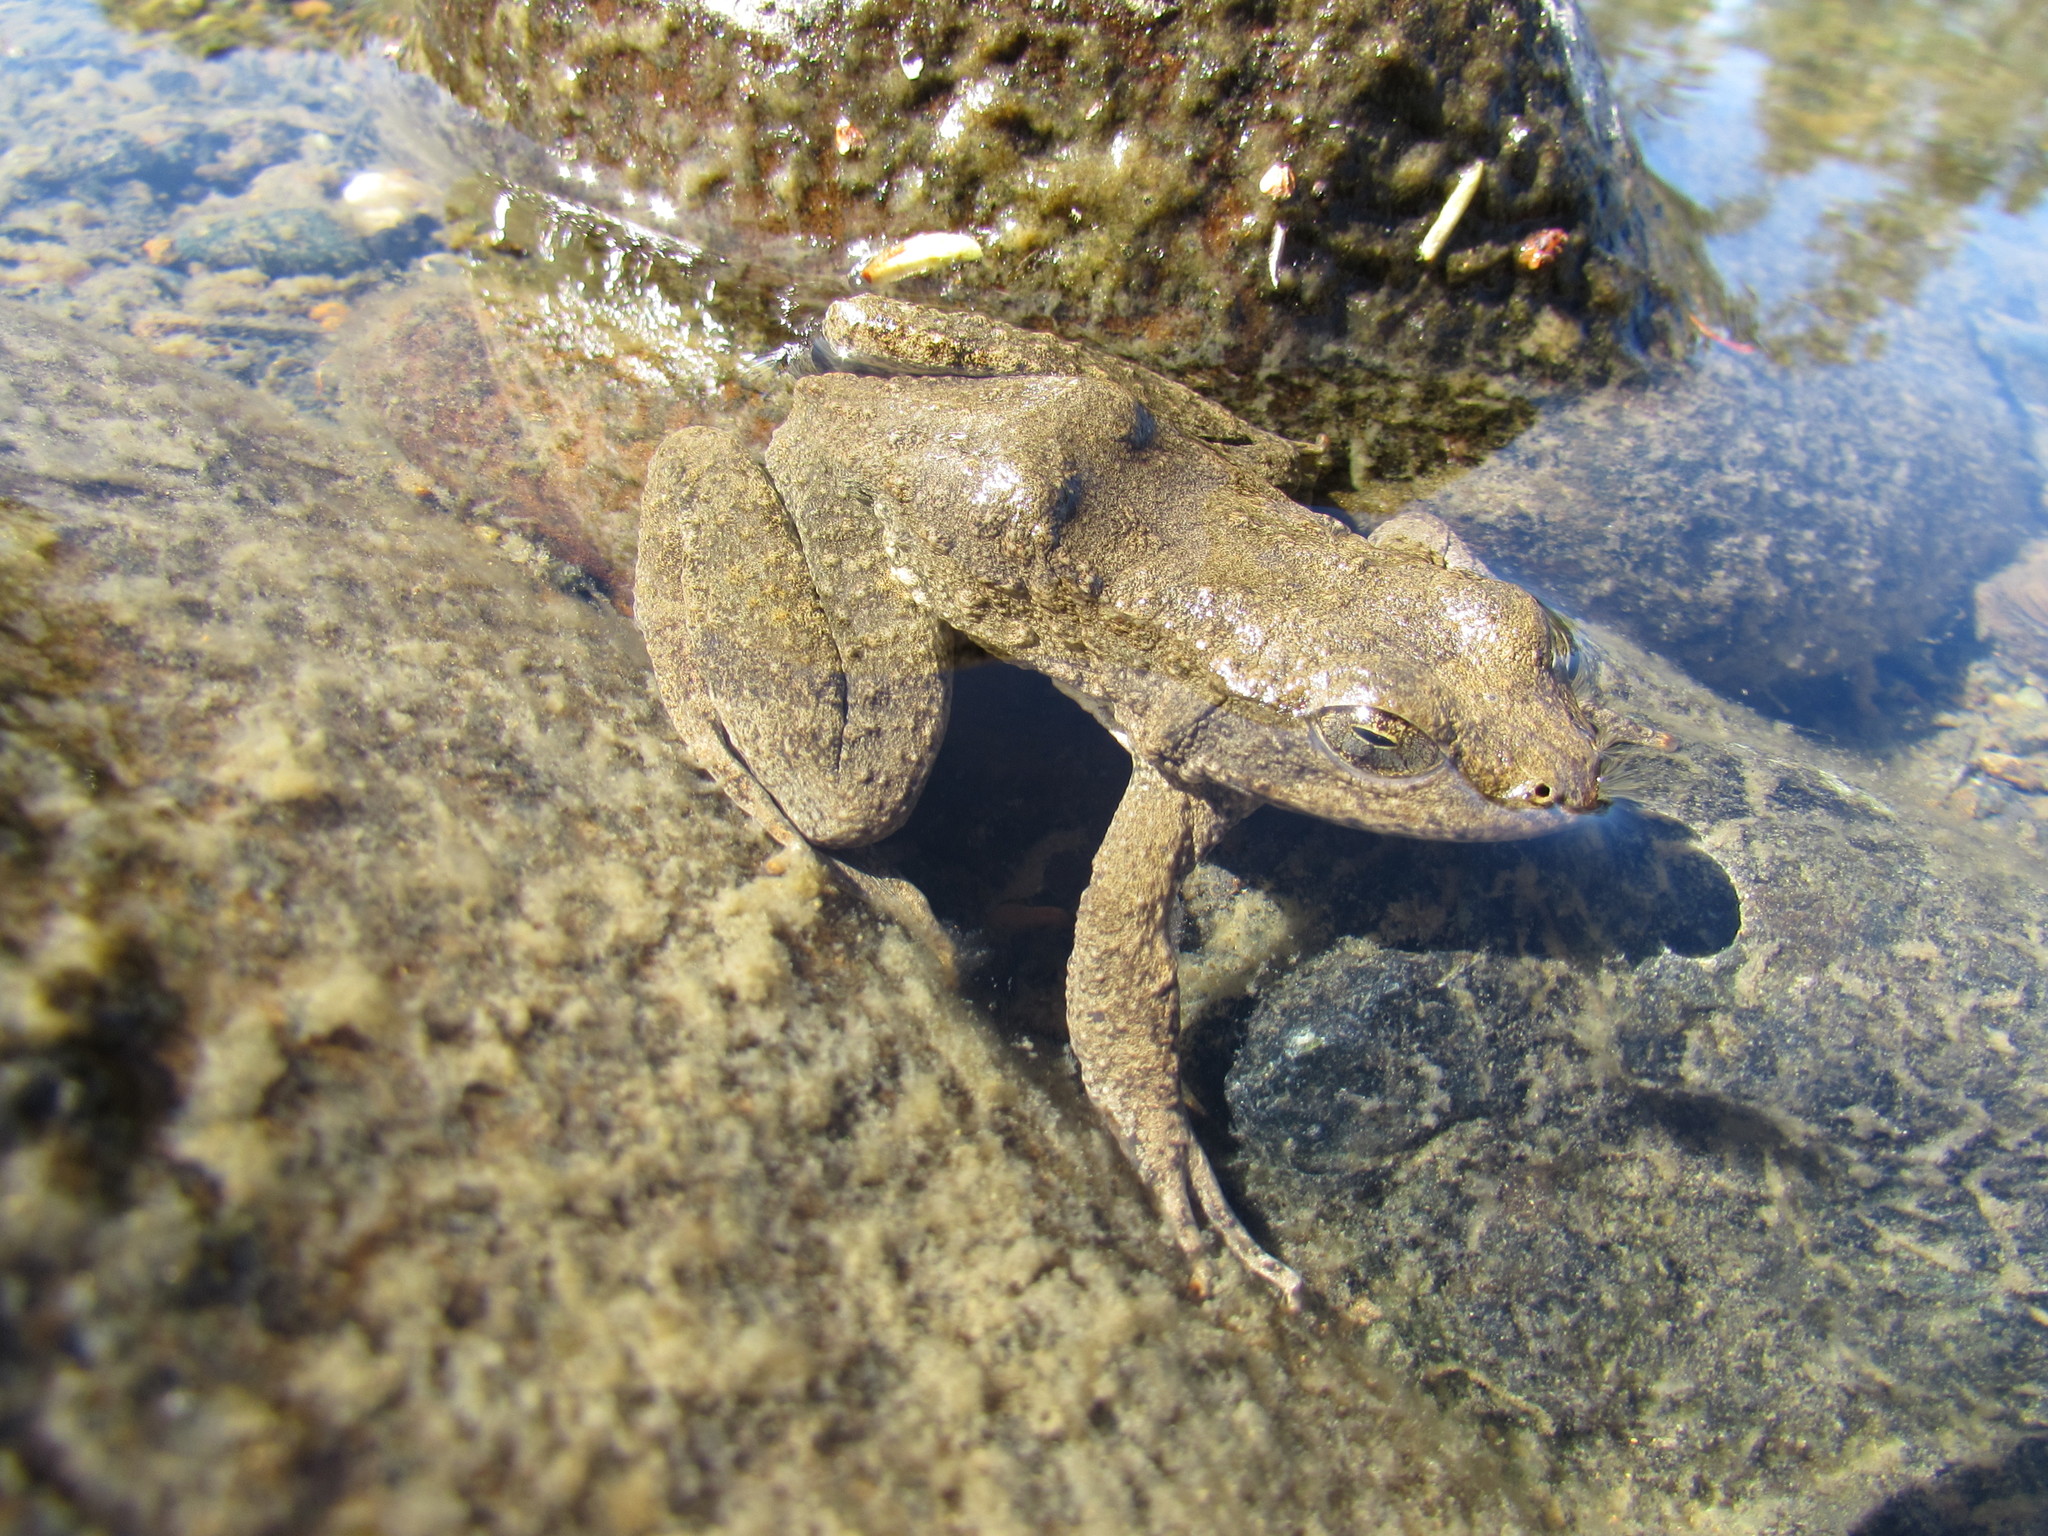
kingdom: Animalia
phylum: Chordata
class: Amphibia
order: Anura
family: Ranidae
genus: Rana
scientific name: Rana boylii
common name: Foothill yellow-legged frog
